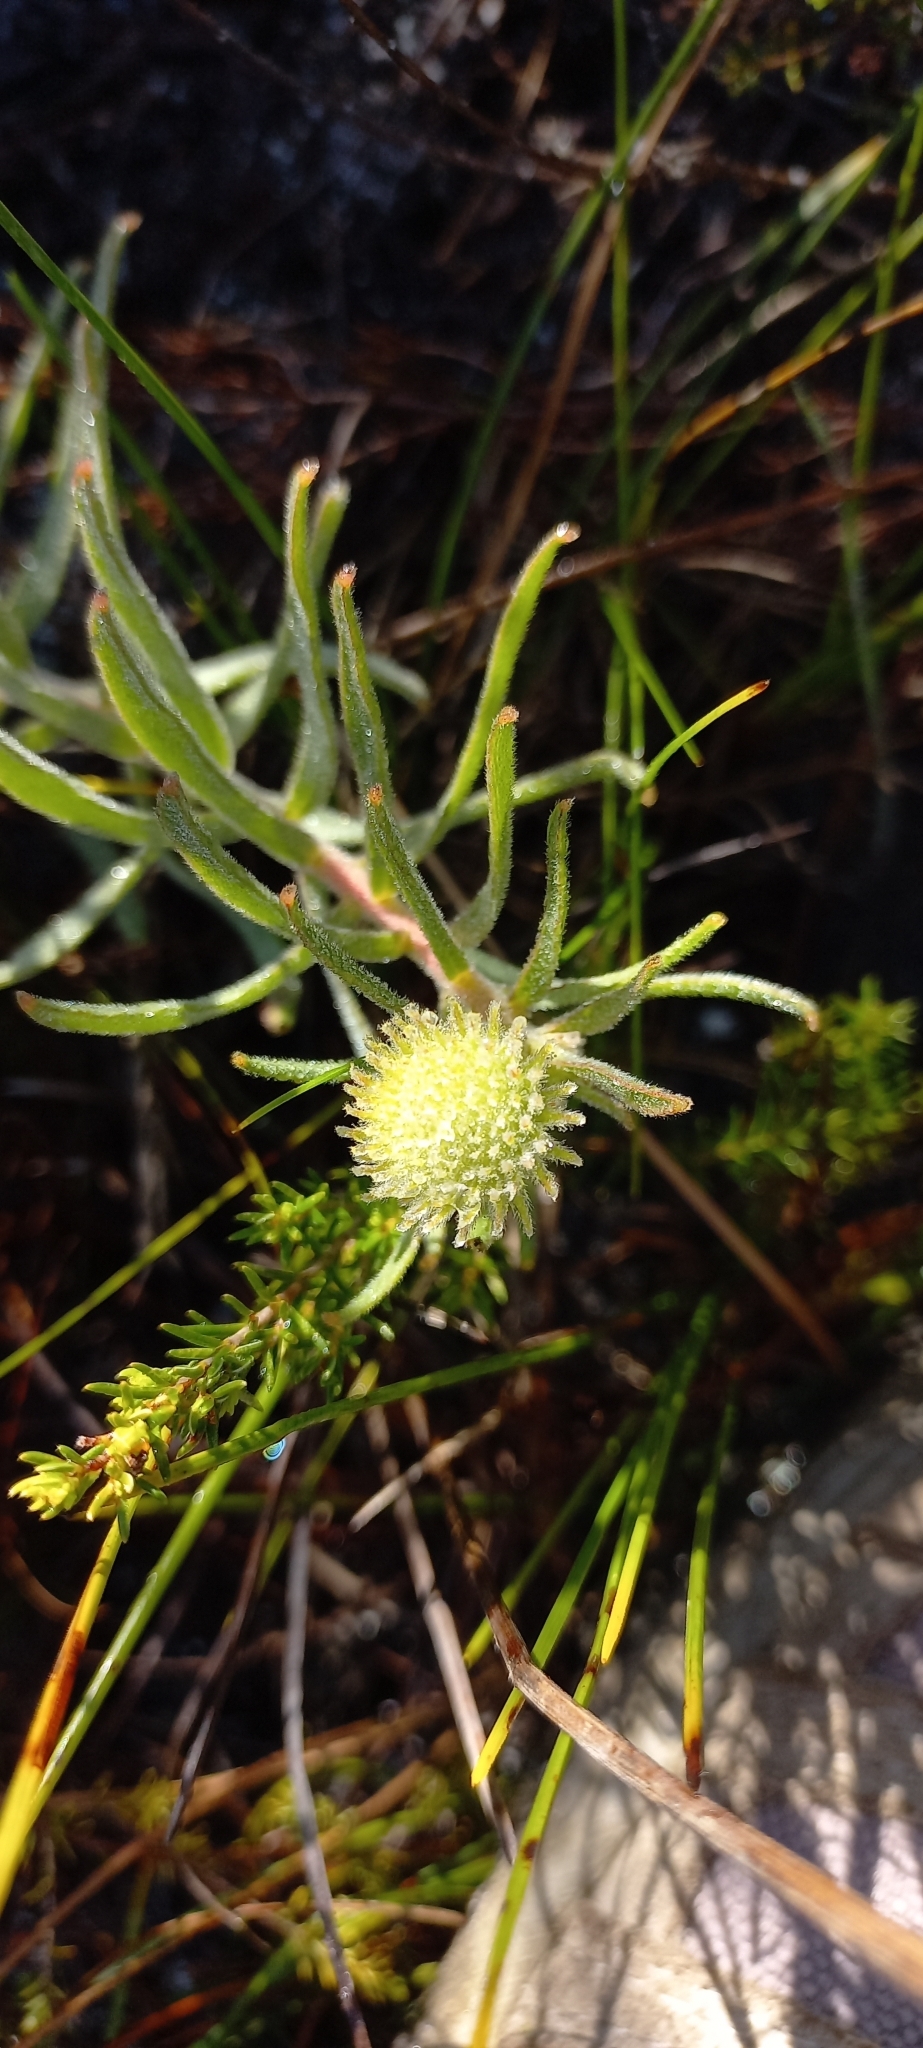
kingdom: Plantae
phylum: Tracheophyta
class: Magnoliopsida
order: Proteales
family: Proteaceae
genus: Leucospermum
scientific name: Leucospermum prostratum
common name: Yellow-trailing pincushion
